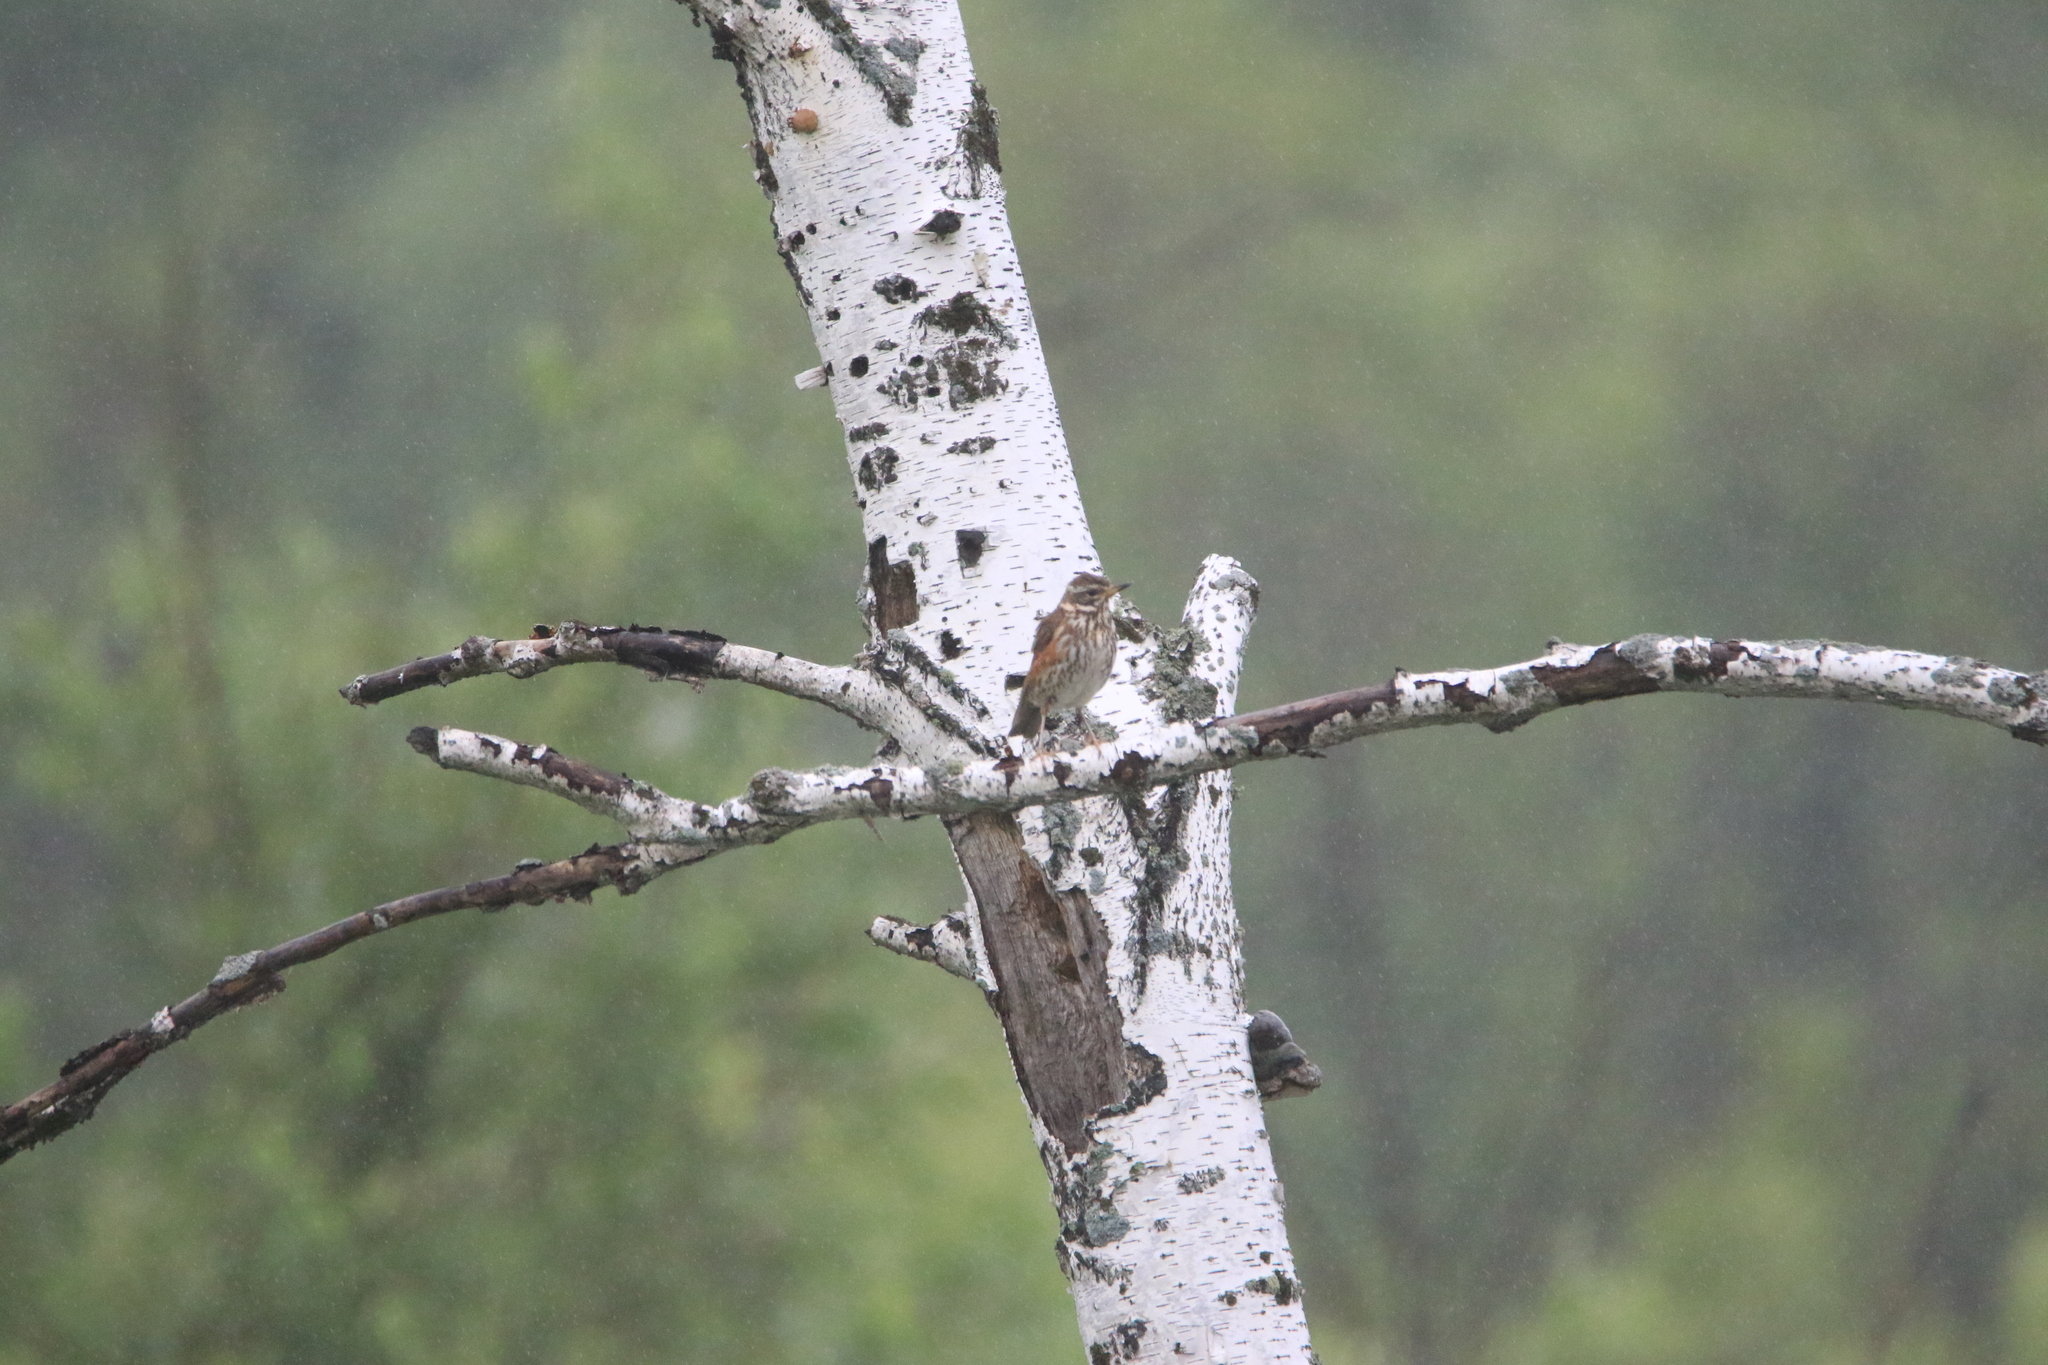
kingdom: Animalia
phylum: Chordata
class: Aves
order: Passeriformes
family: Turdidae
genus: Turdus
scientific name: Turdus iliacus
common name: Redwing
